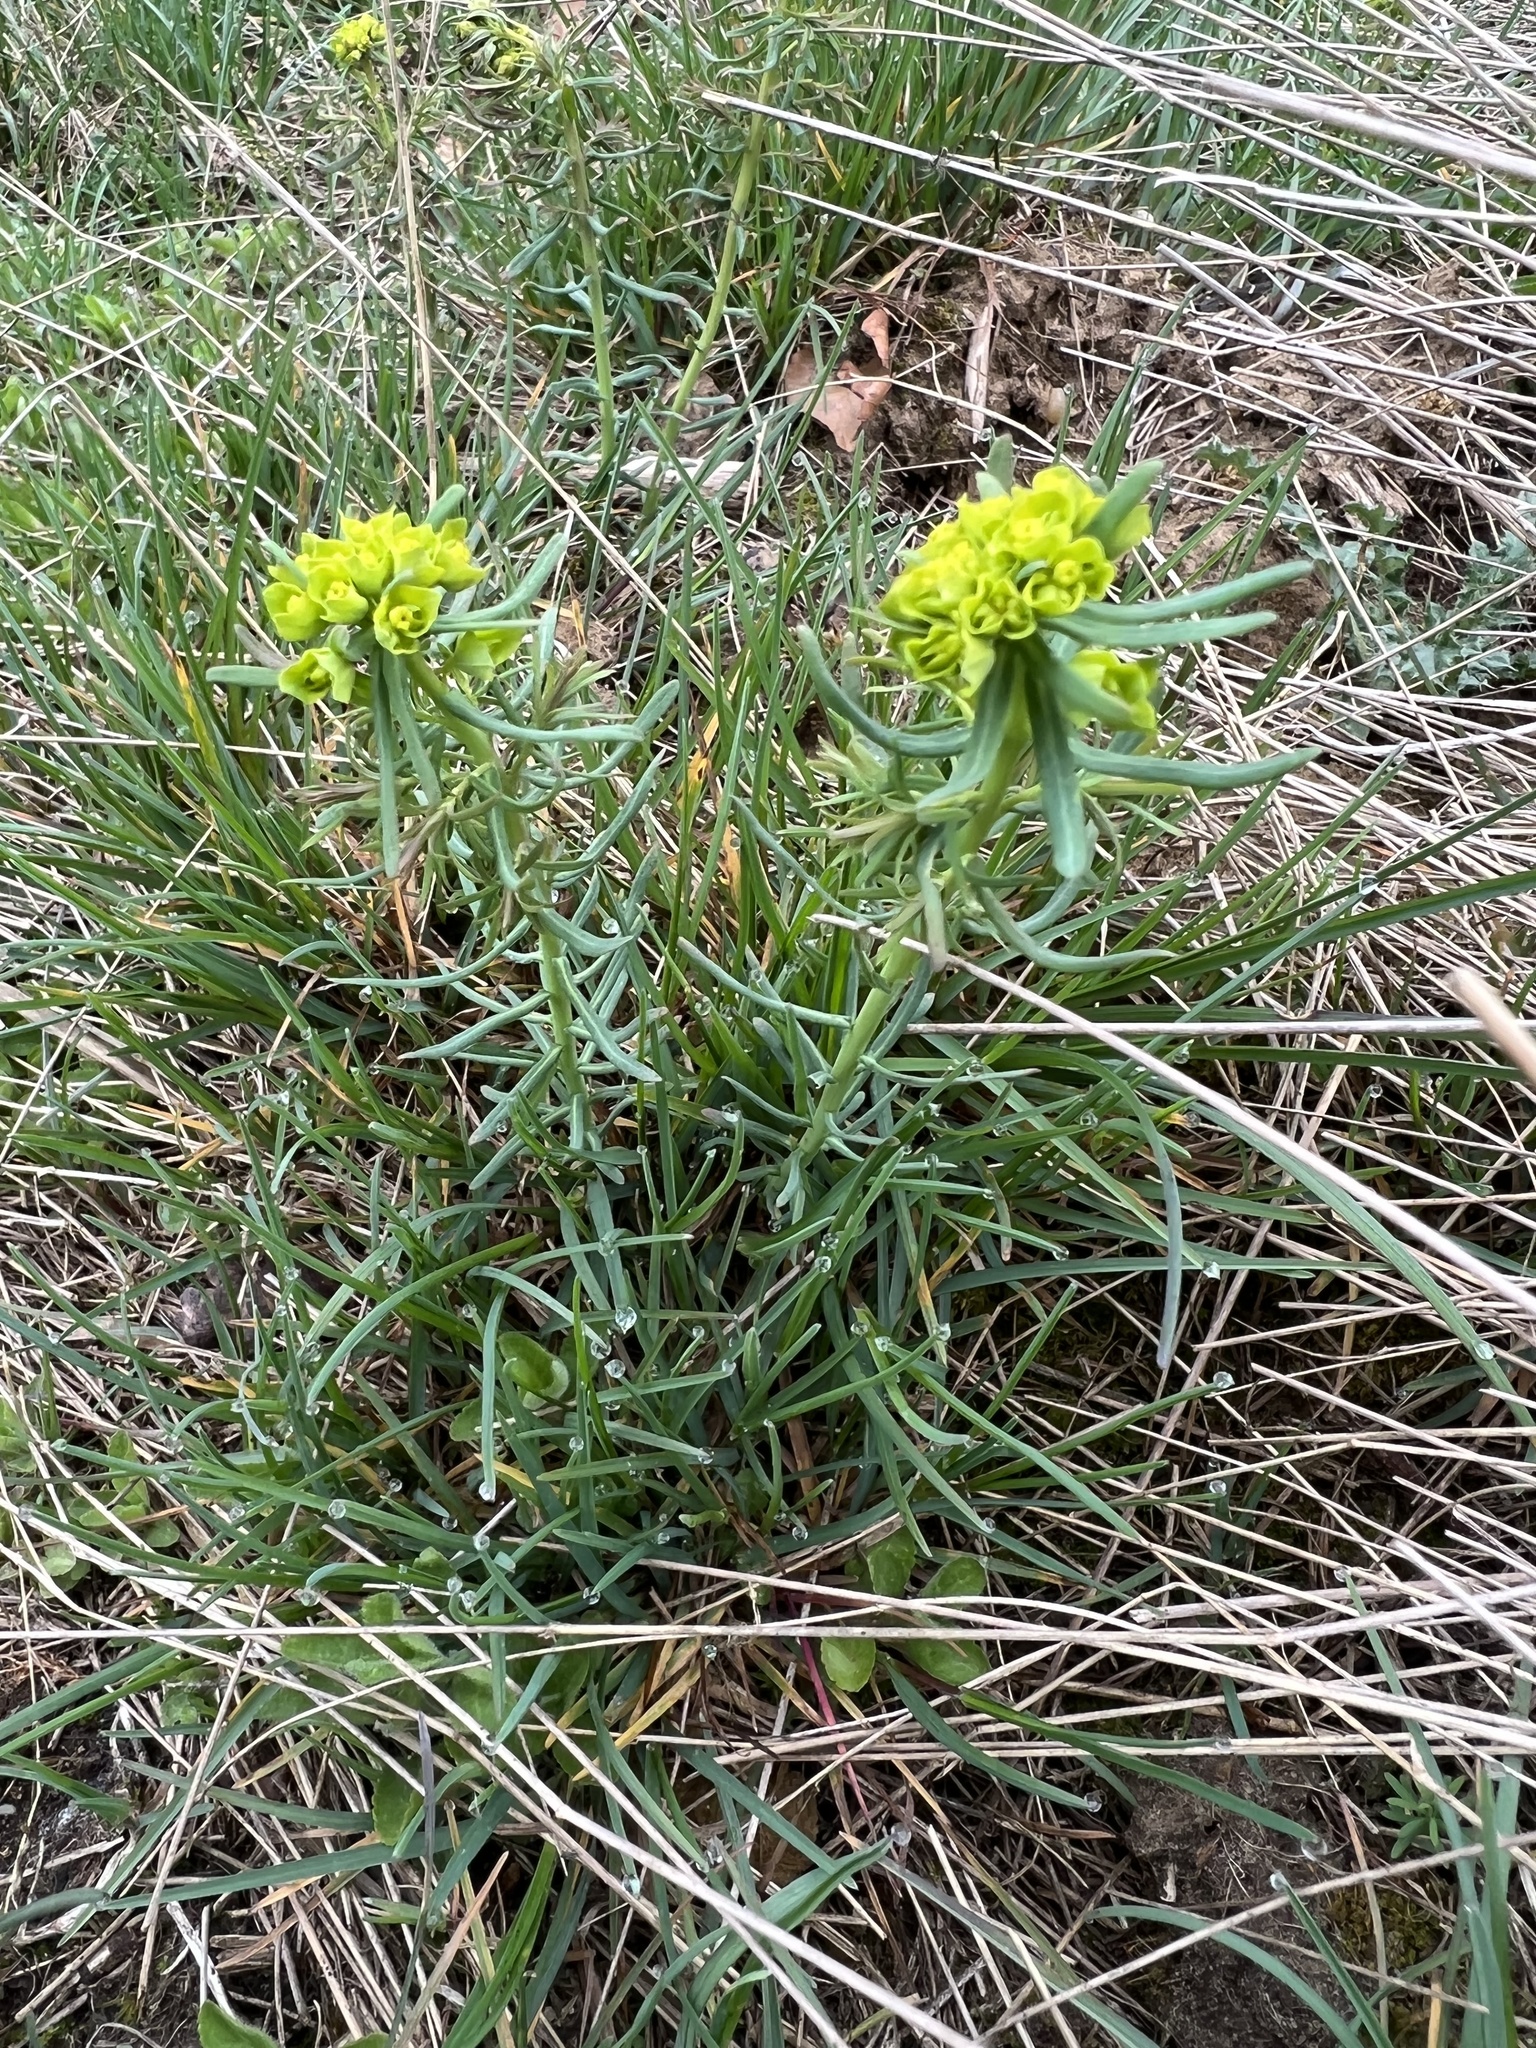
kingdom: Plantae
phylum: Tracheophyta
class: Magnoliopsida
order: Malpighiales
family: Euphorbiaceae
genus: Euphorbia
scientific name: Euphorbia cyparissias
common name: Cypress spurge
